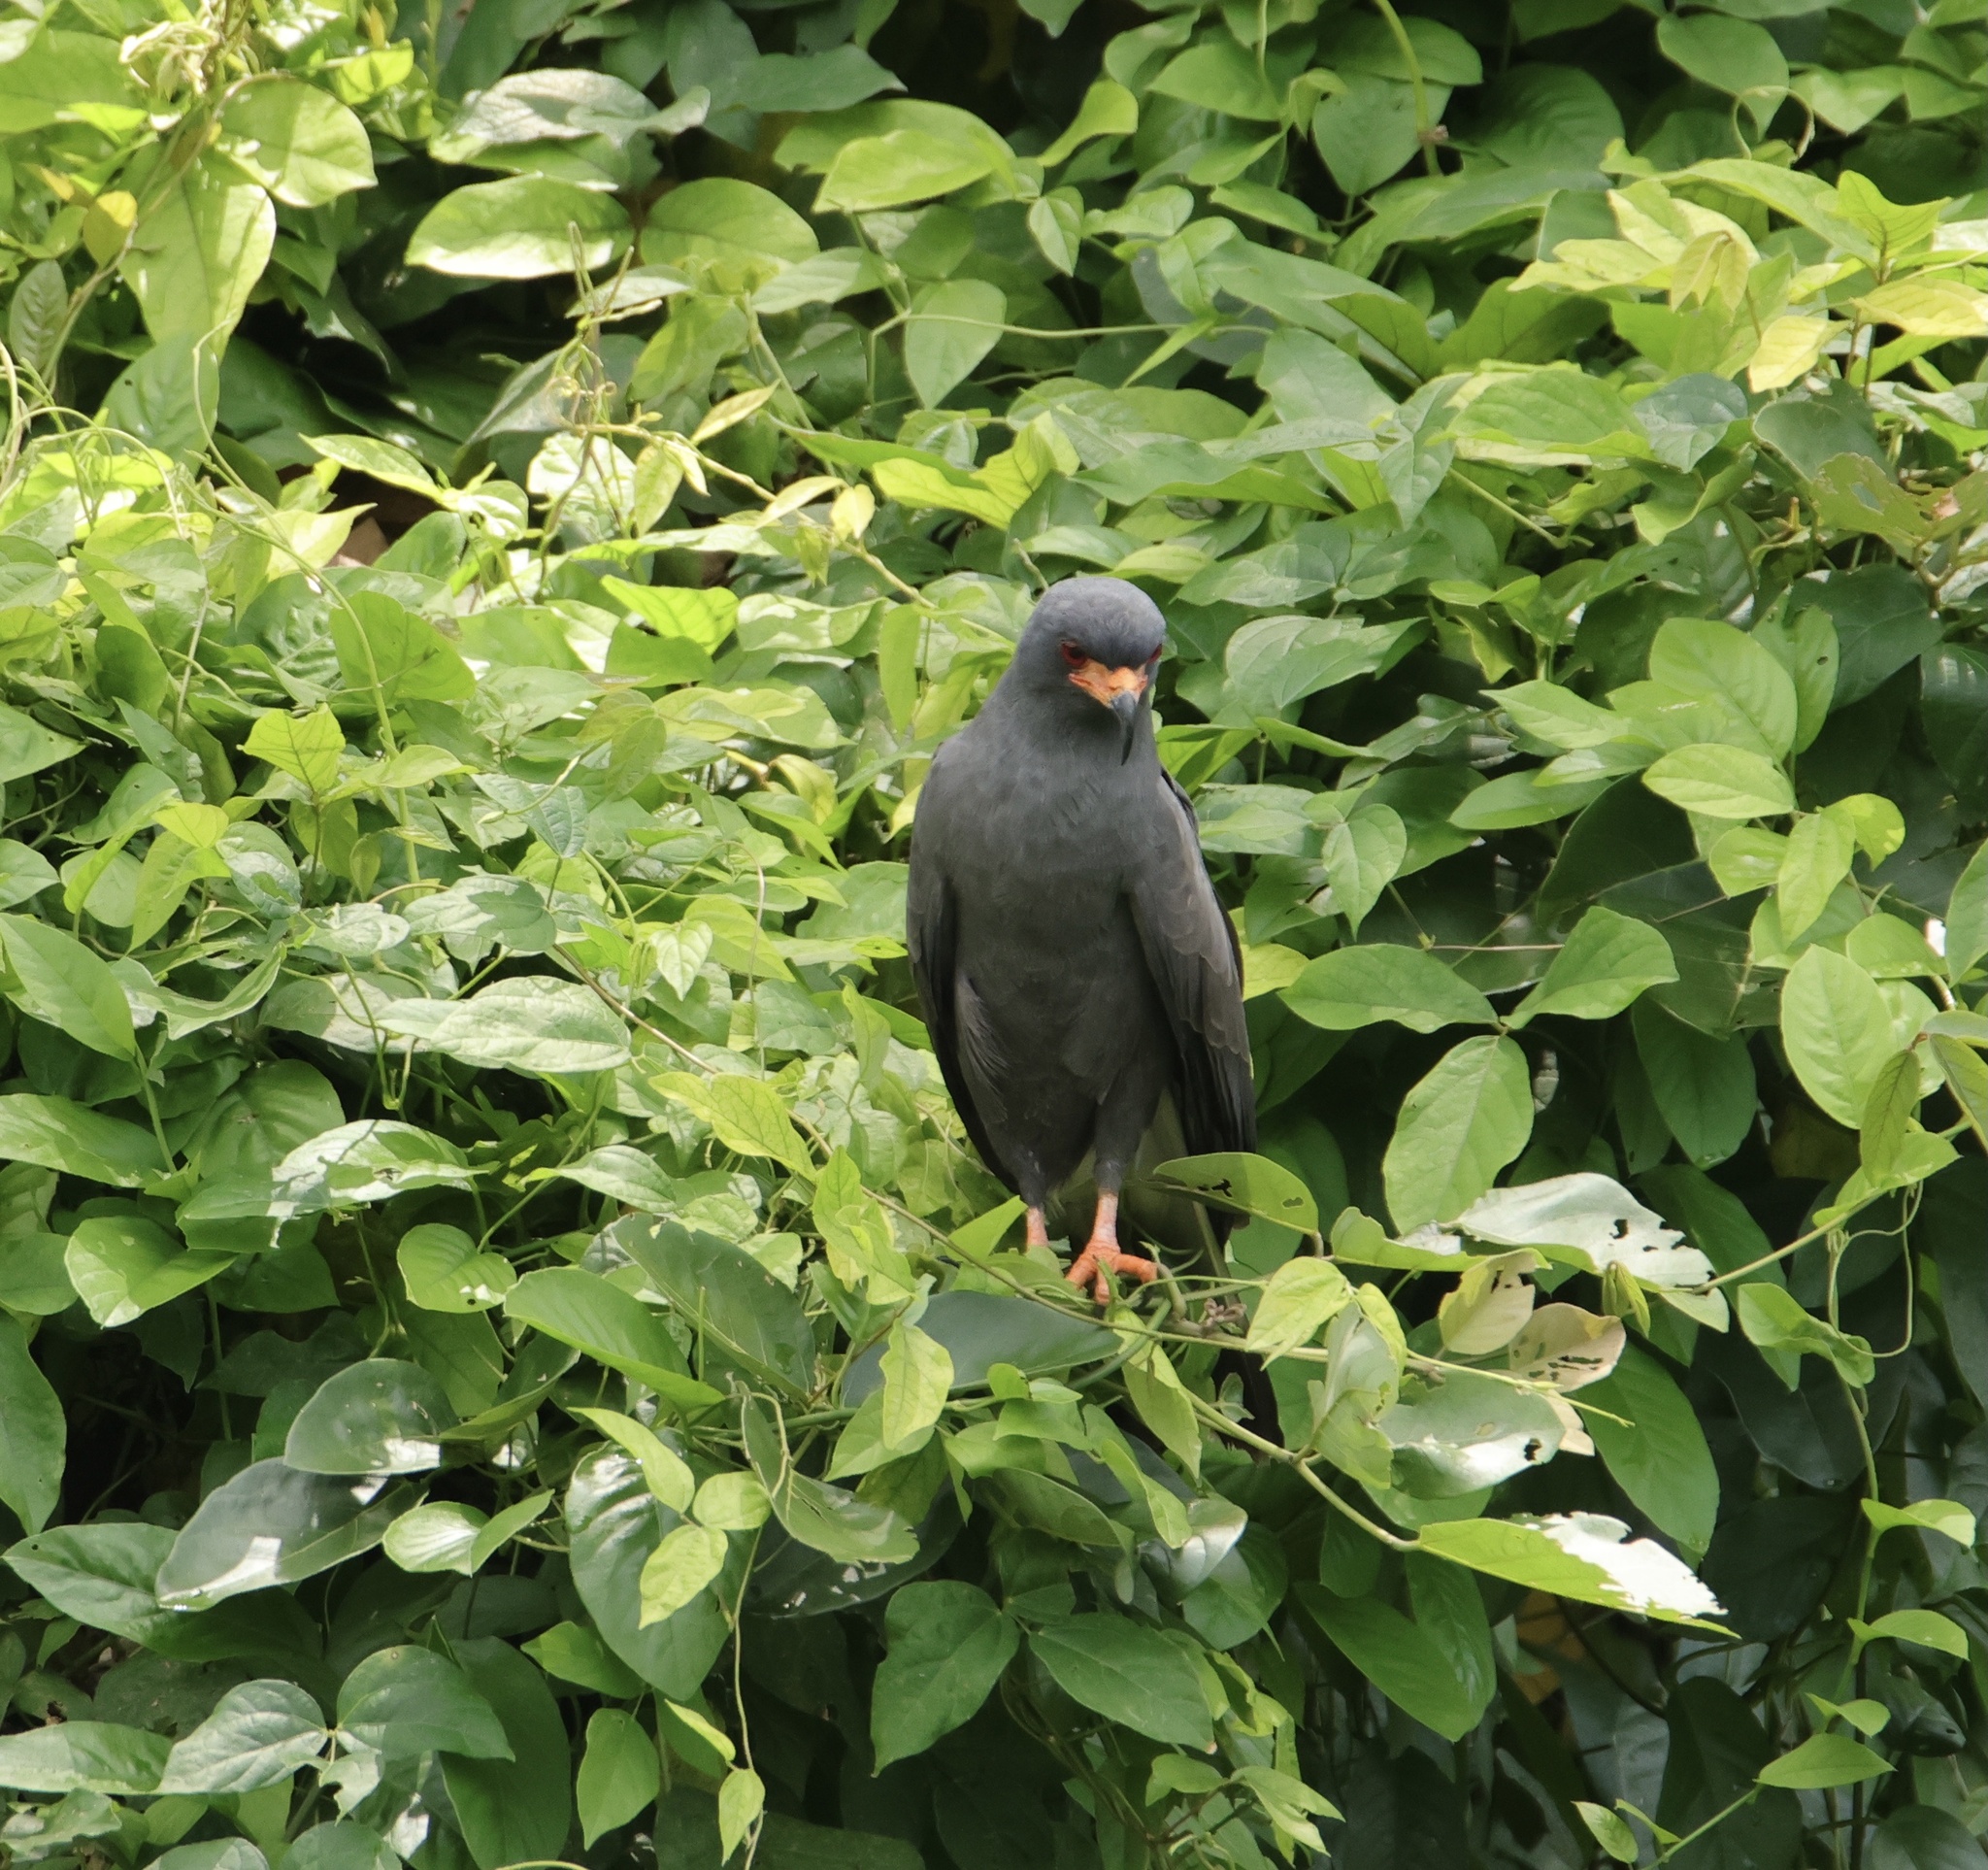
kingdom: Animalia
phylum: Chordata
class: Aves
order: Accipitriformes
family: Accipitridae
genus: Rostrhamus
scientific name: Rostrhamus sociabilis
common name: Snail kite
